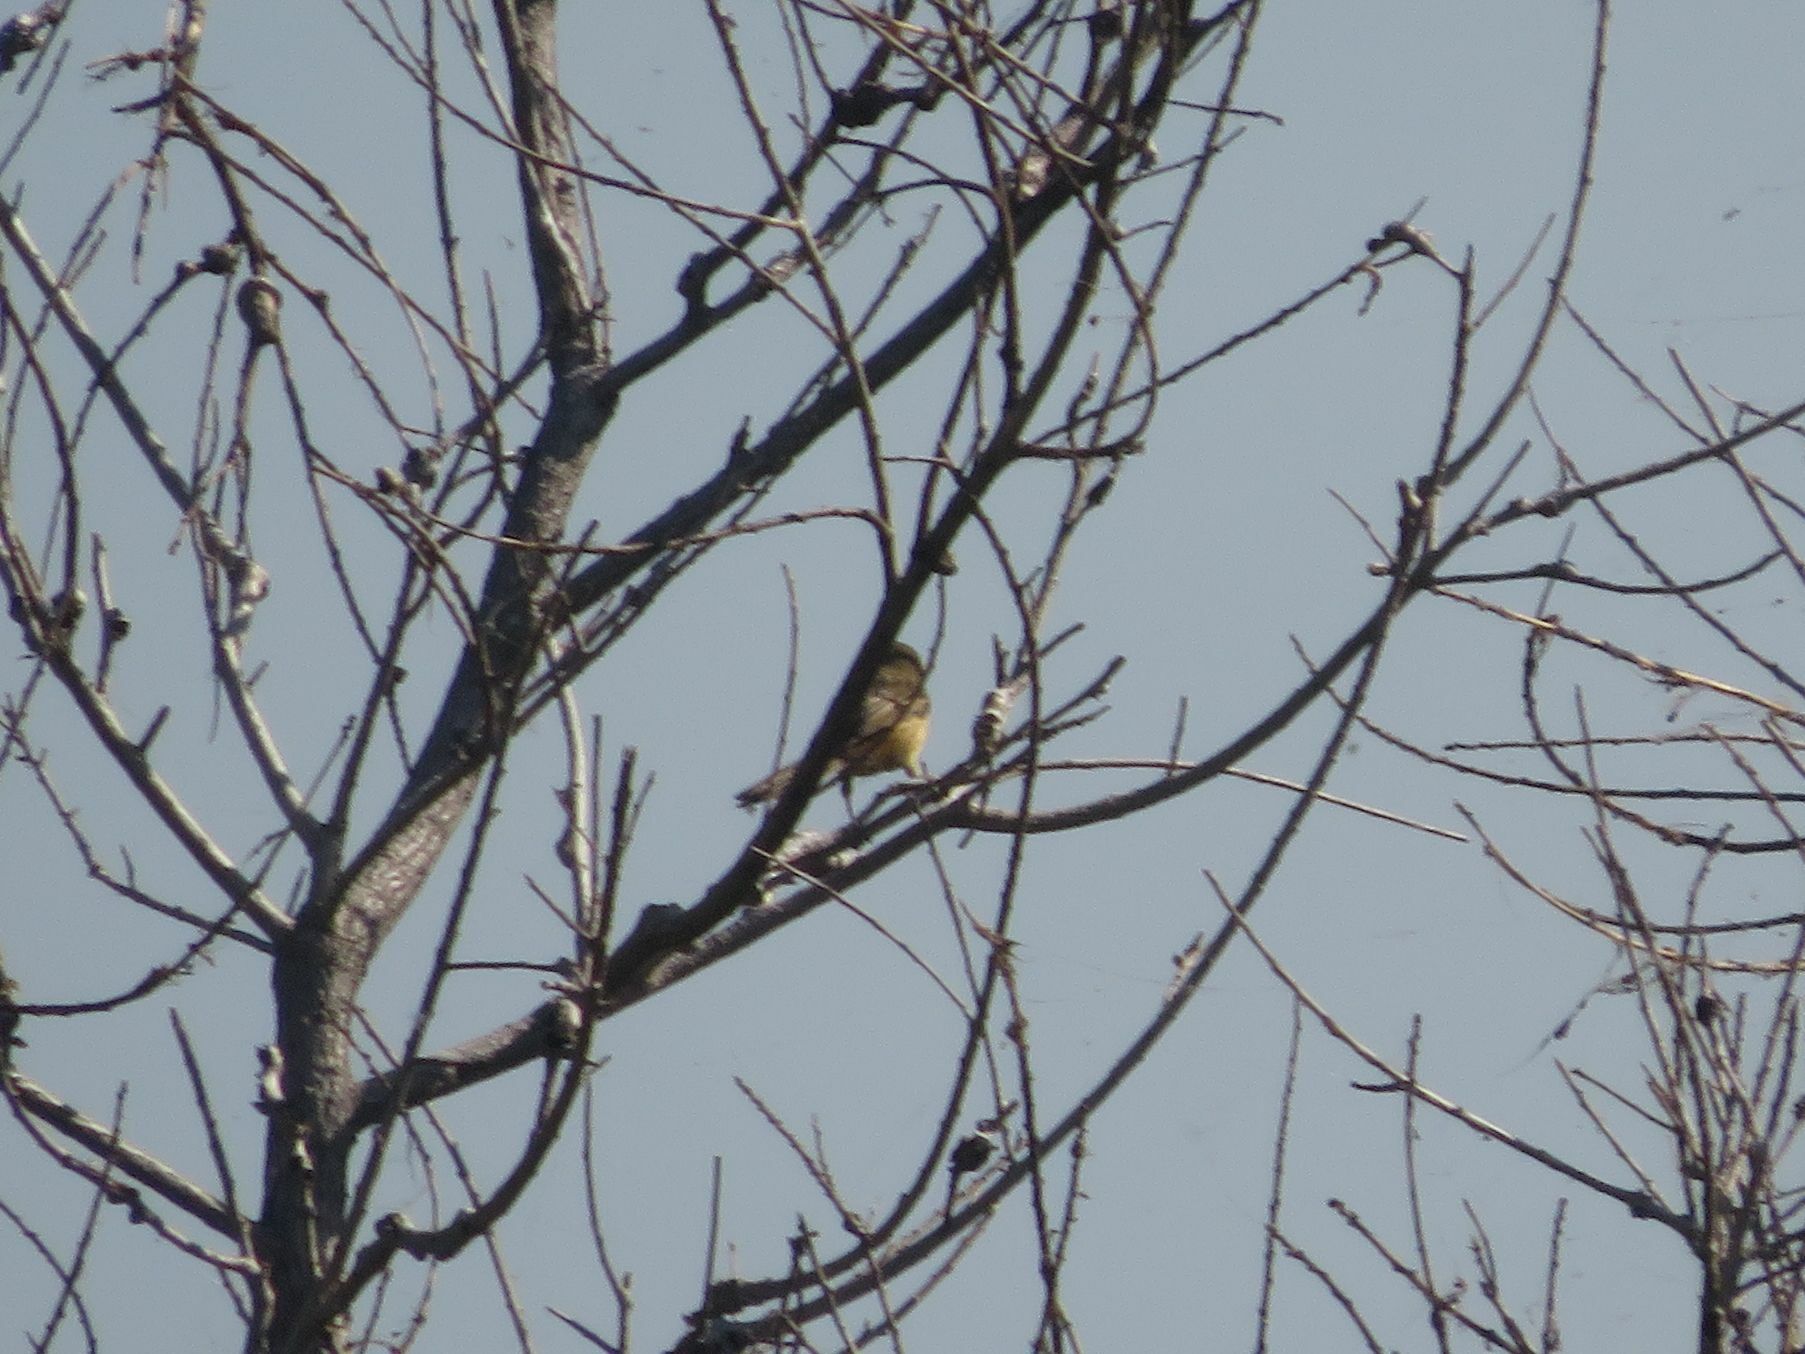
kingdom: Animalia
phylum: Chordata
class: Aves
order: Passeriformes
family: Thraupidae
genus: Donacospiza
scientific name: Donacospiza albifrons
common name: Long-tailed reed finch
